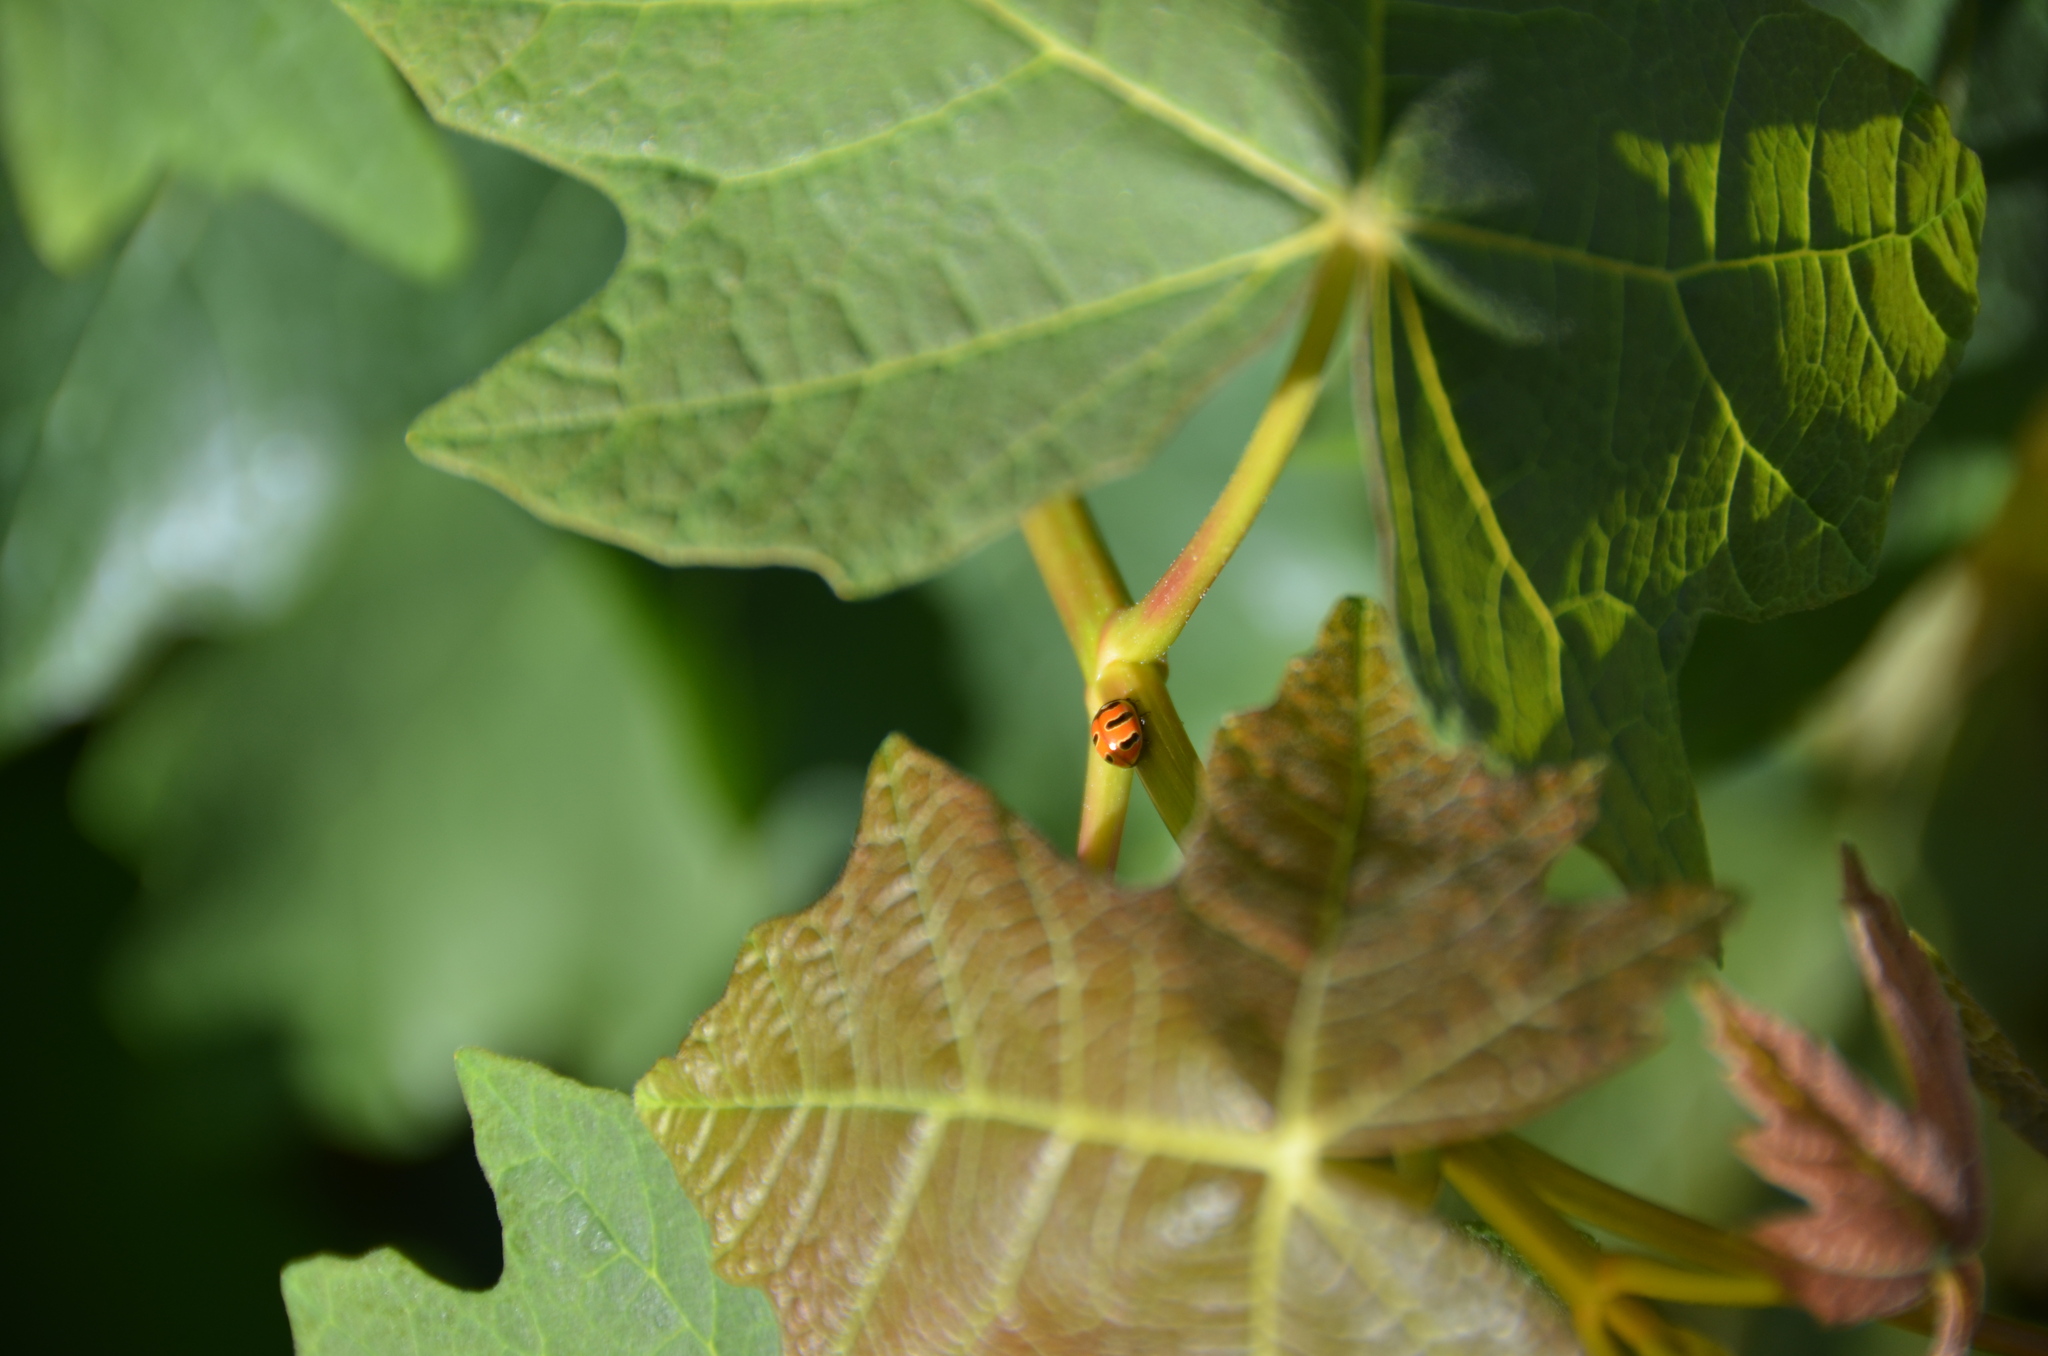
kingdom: Animalia
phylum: Arthropoda
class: Insecta
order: Coleoptera
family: Coccinellidae
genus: Coccinella
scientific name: Coccinella trifasciata
